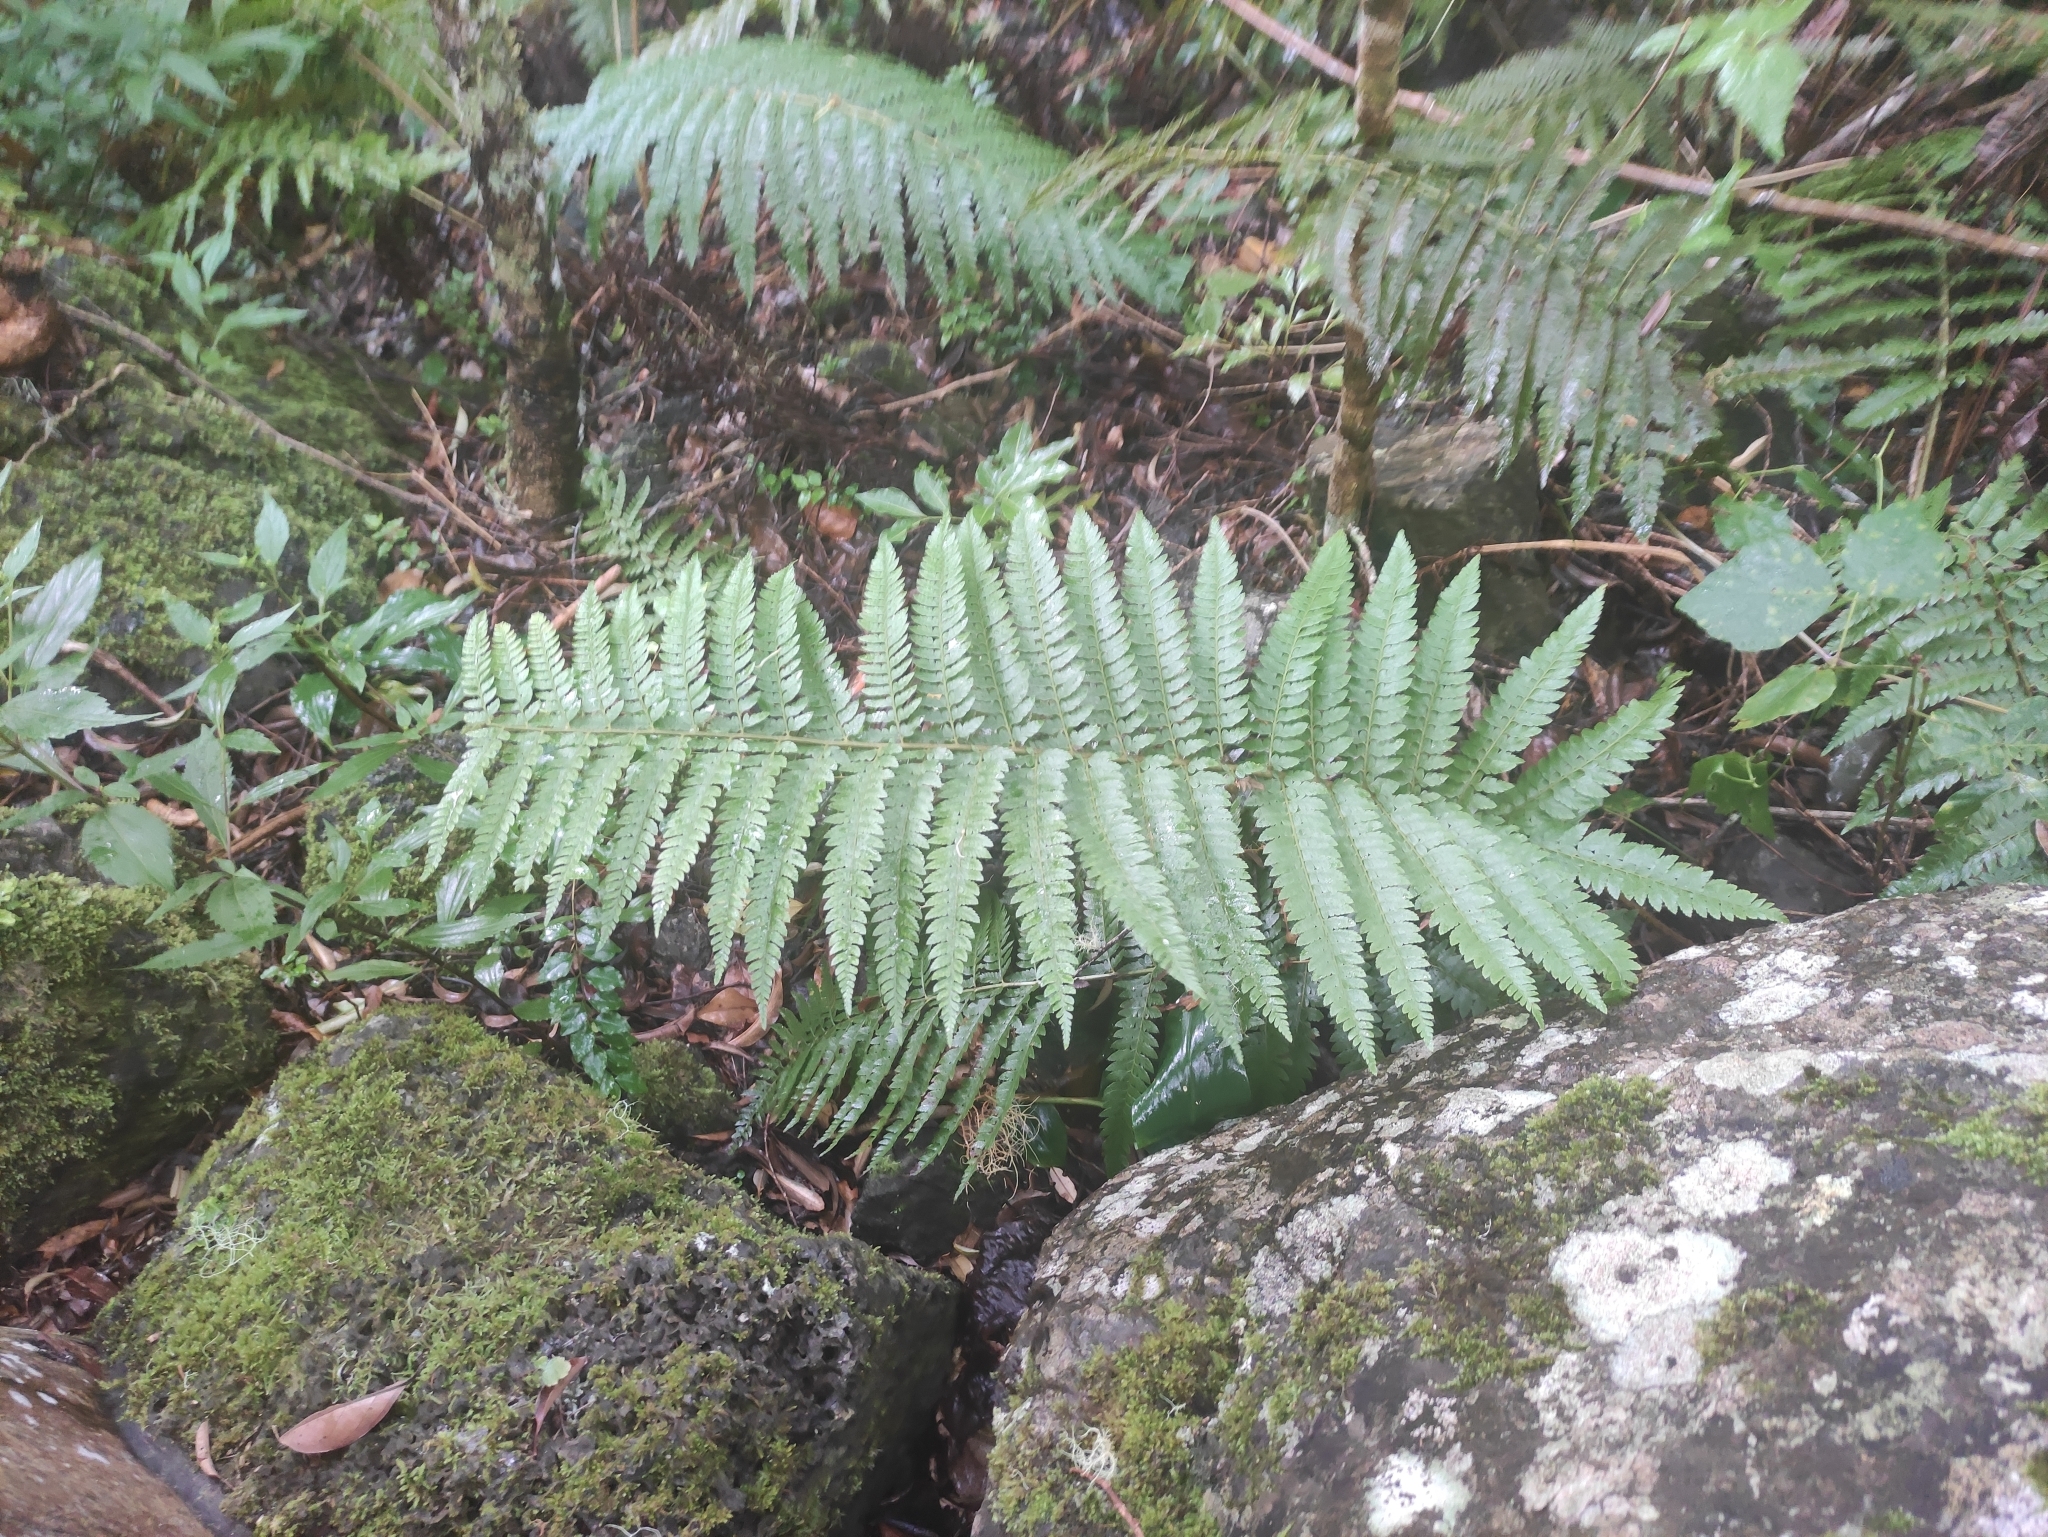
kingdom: Plantae
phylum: Tracheophyta
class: Polypodiopsida
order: Polypodiales
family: Dryopteridaceae
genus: Polystichum
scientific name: Polystichum ammifolium
